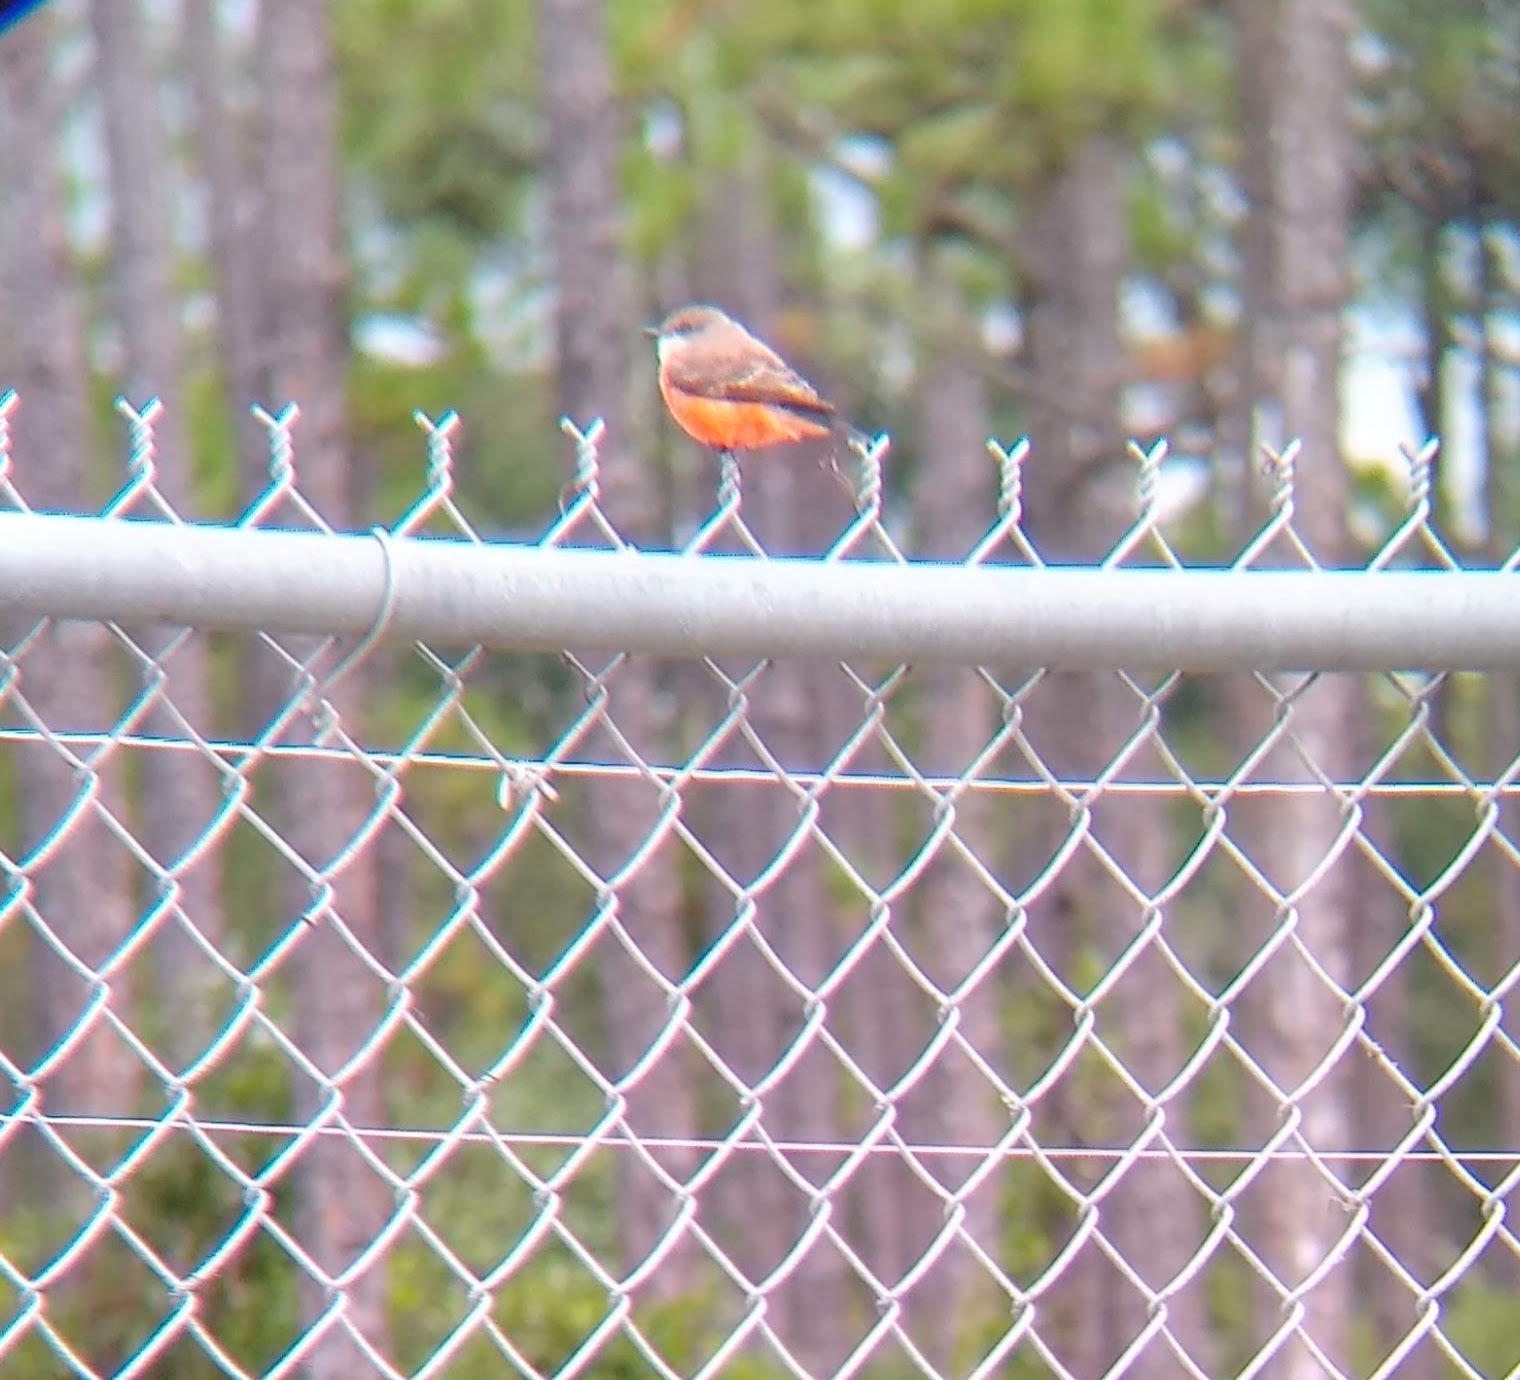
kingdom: Animalia
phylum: Chordata
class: Aves
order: Passeriformes
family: Tyrannidae
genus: Pyrocephalus
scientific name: Pyrocephalus rubinus
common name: Vermilion flycatcher
